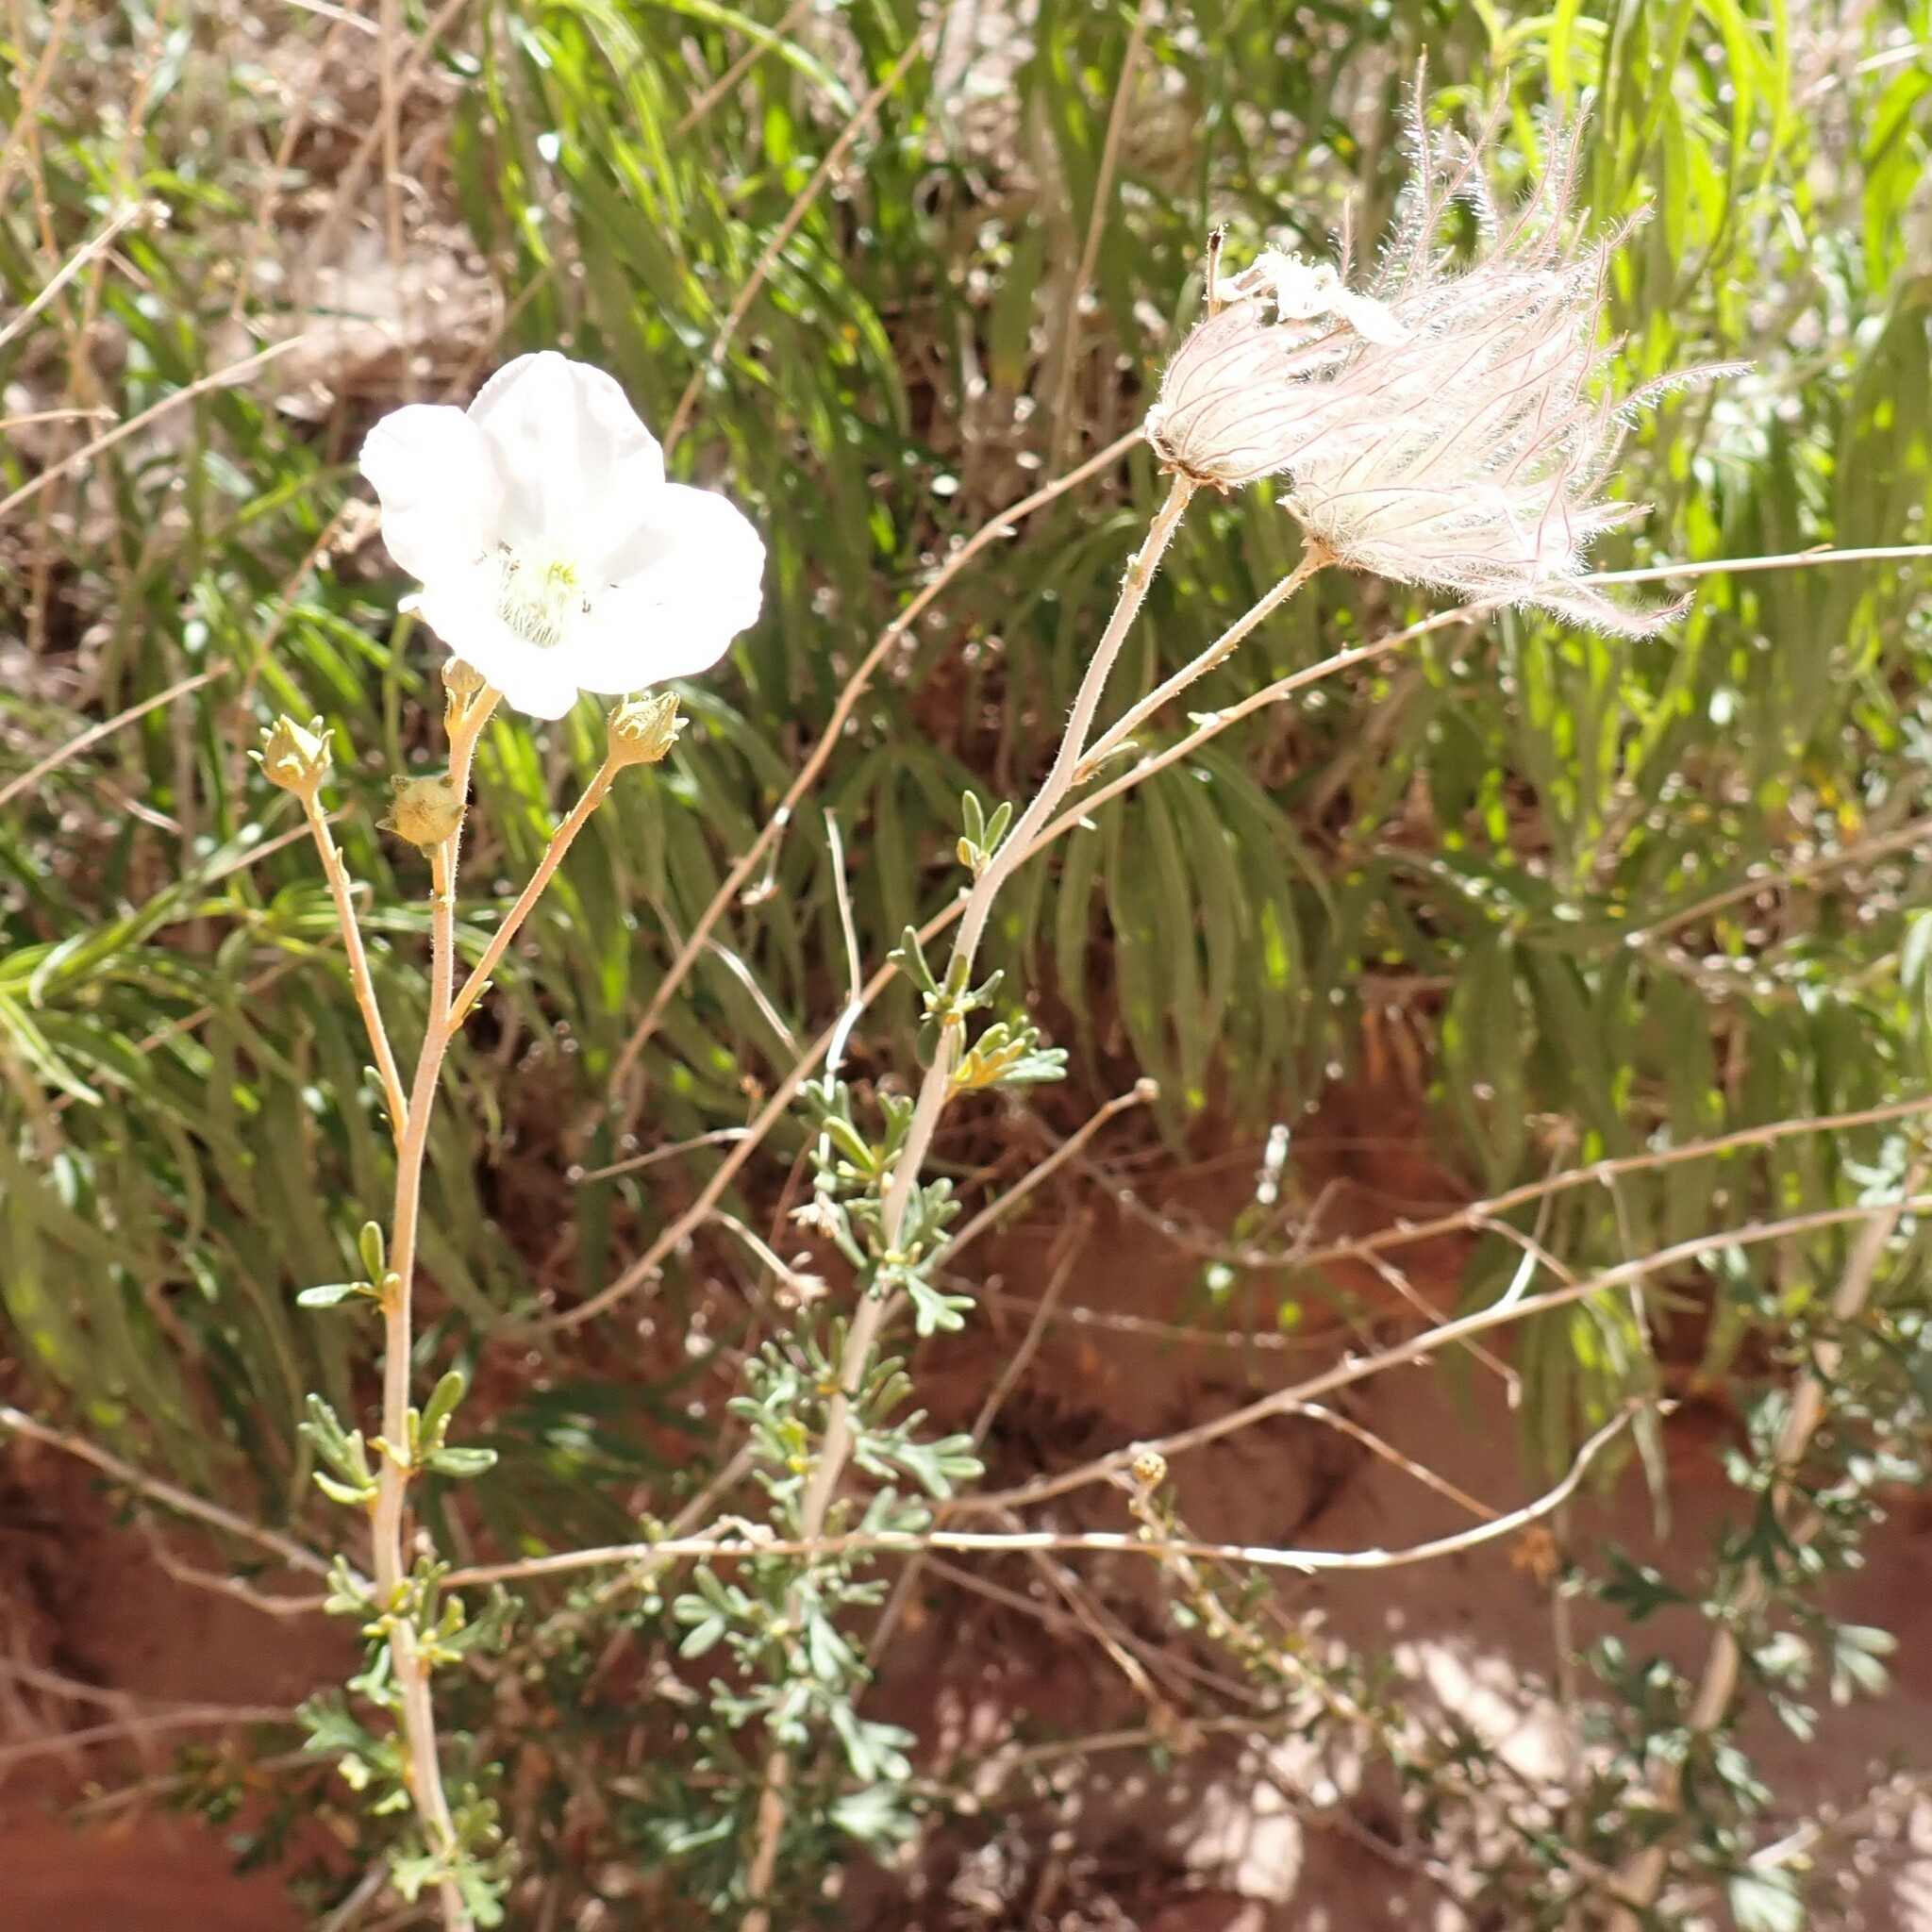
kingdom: Plantae
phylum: Tracheophyta
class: Magnoliopsida
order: Rosales
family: Rosaceae
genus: Fallugia
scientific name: Fallugia paradoxa
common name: Apache-plume
